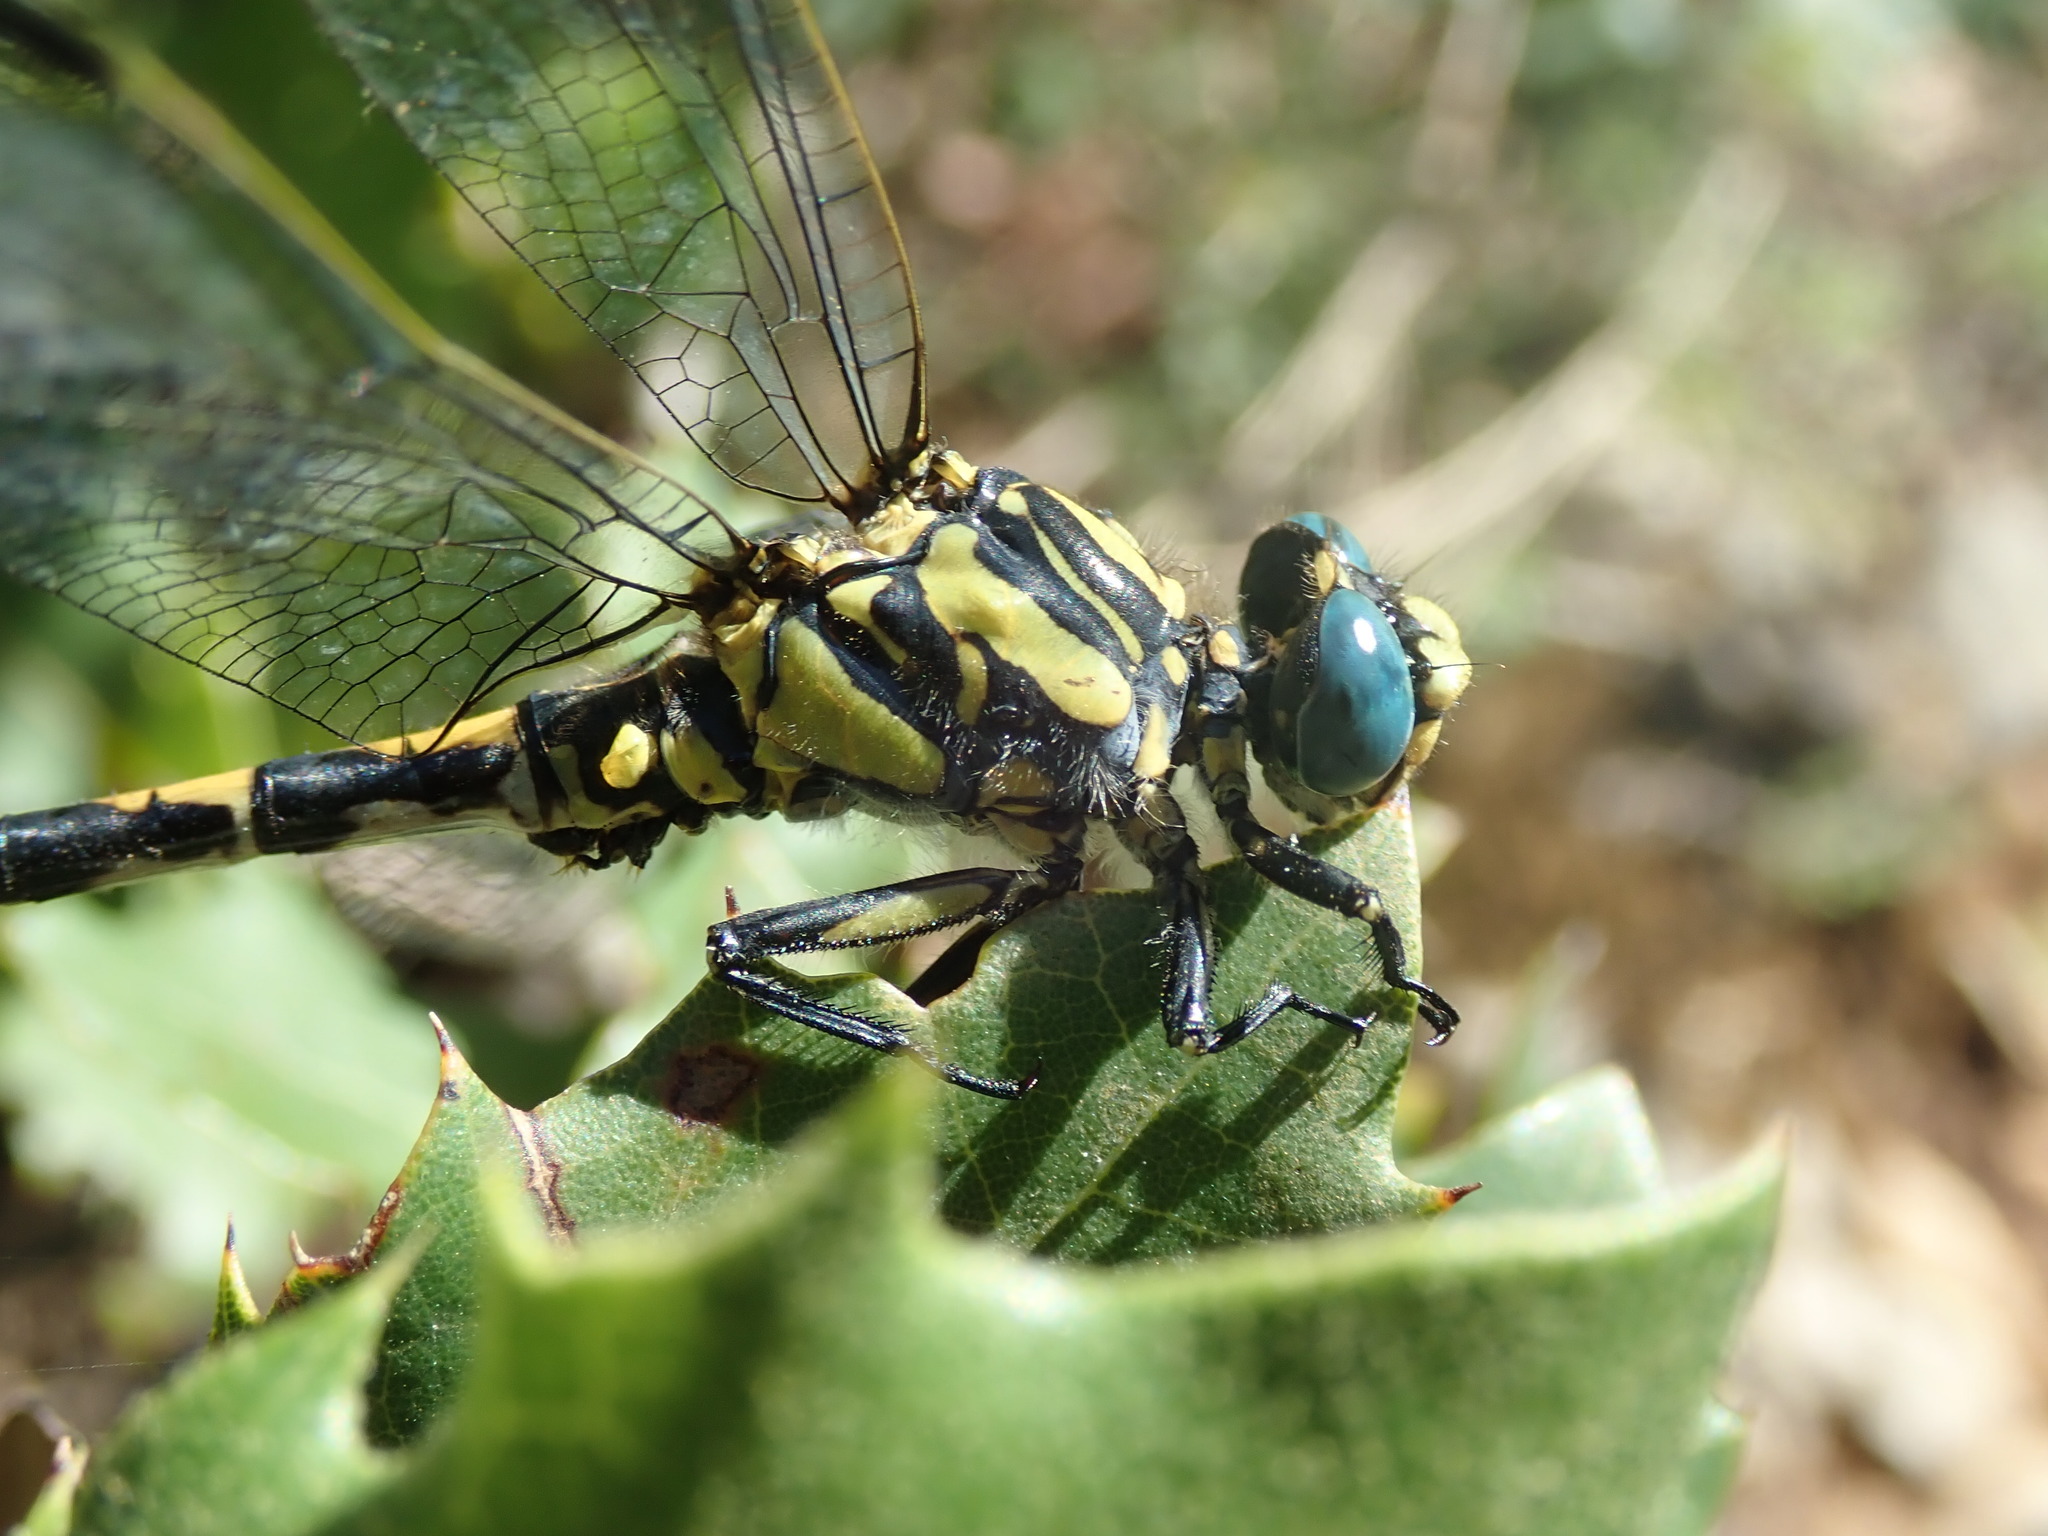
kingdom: Animalia
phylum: Arthropoda
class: Insecta
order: Odonata
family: Gomphidae
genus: Onychogomphus
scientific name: Onychogomphus uncatus
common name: Large pincertail
